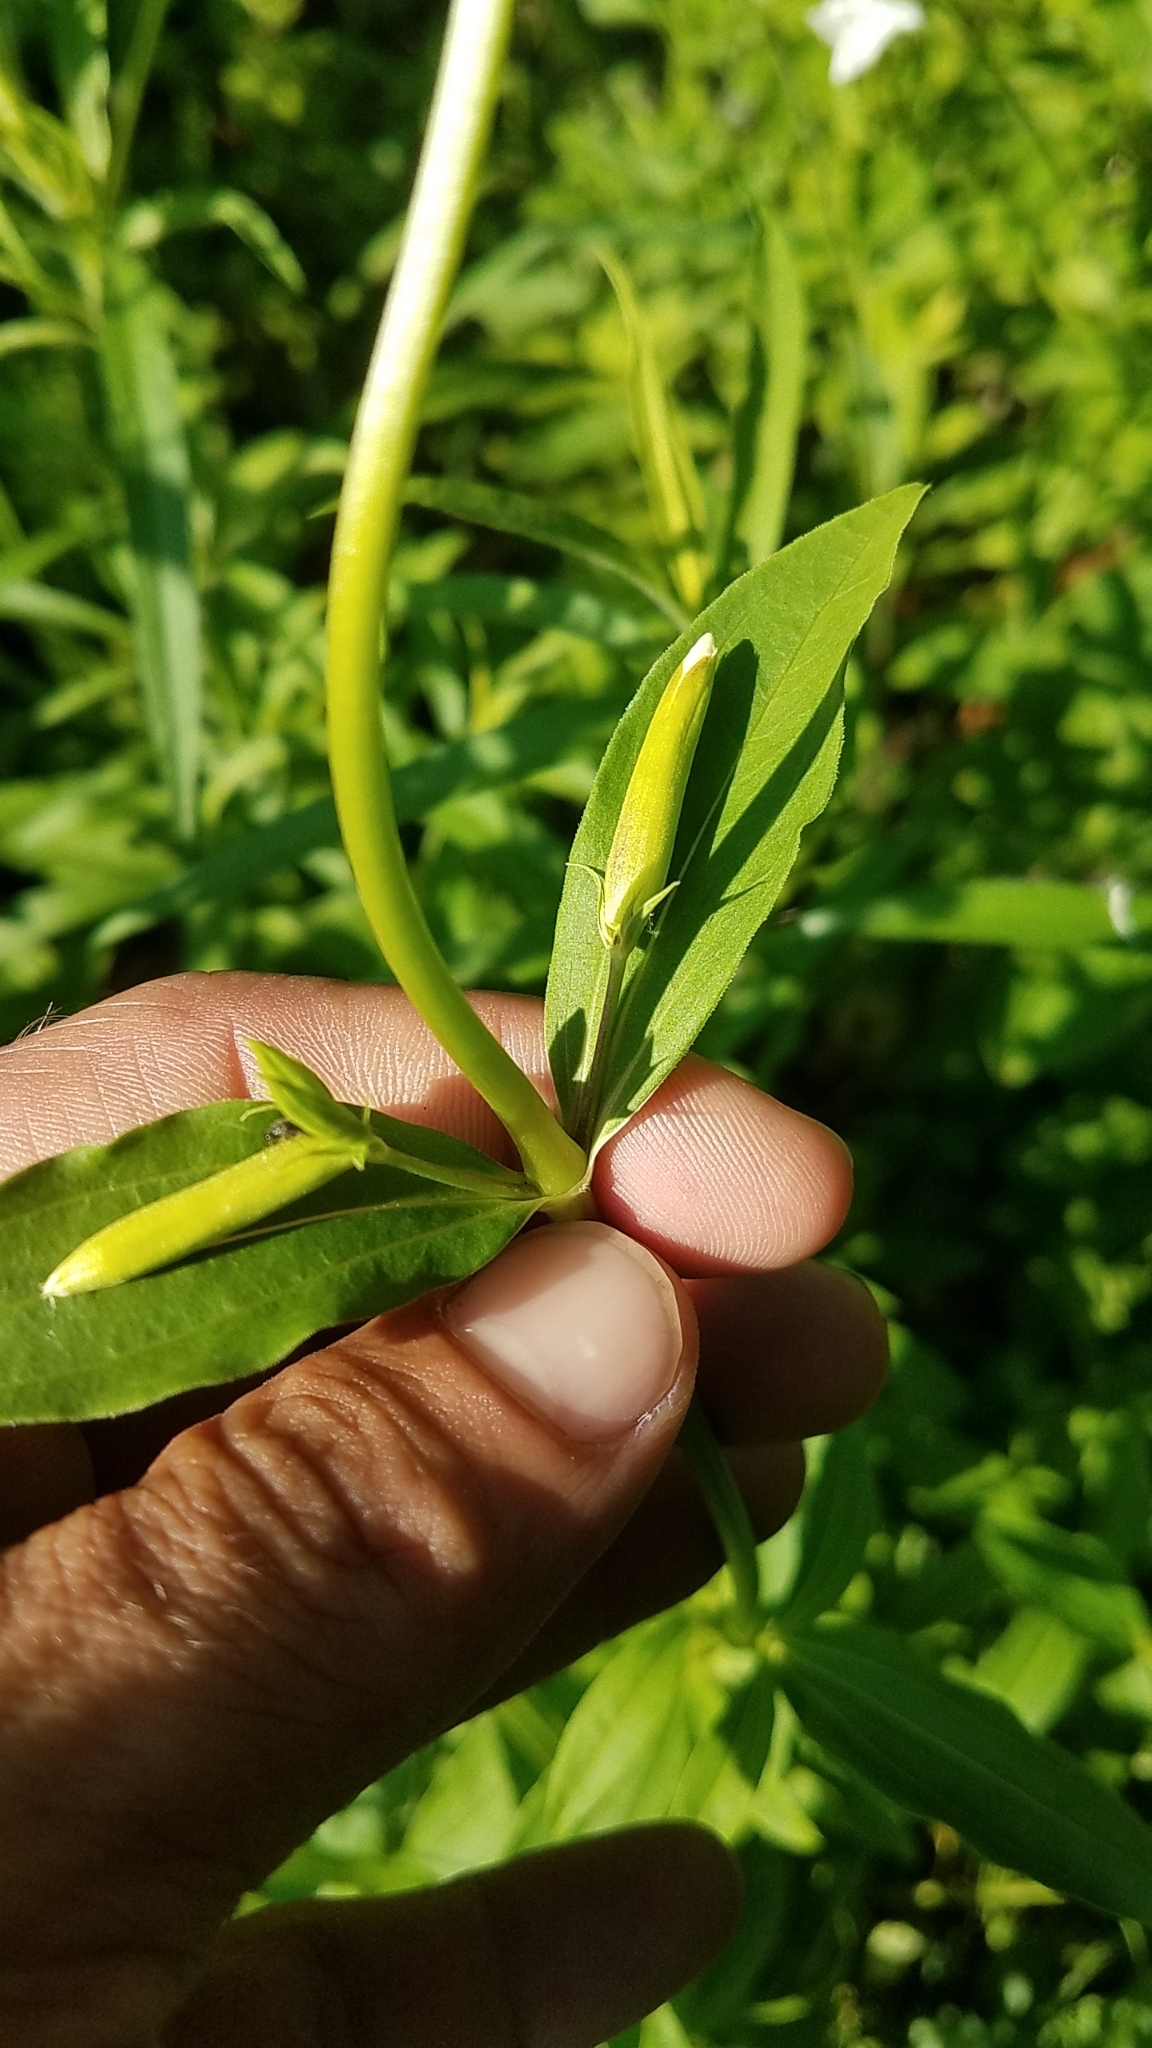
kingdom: Plantae
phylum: Tracheophyta
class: Magnoliopsida
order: Caryophyllales
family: Caryophyllaceae
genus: Saponaria
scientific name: Saponaria officinalis
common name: Soapwort
